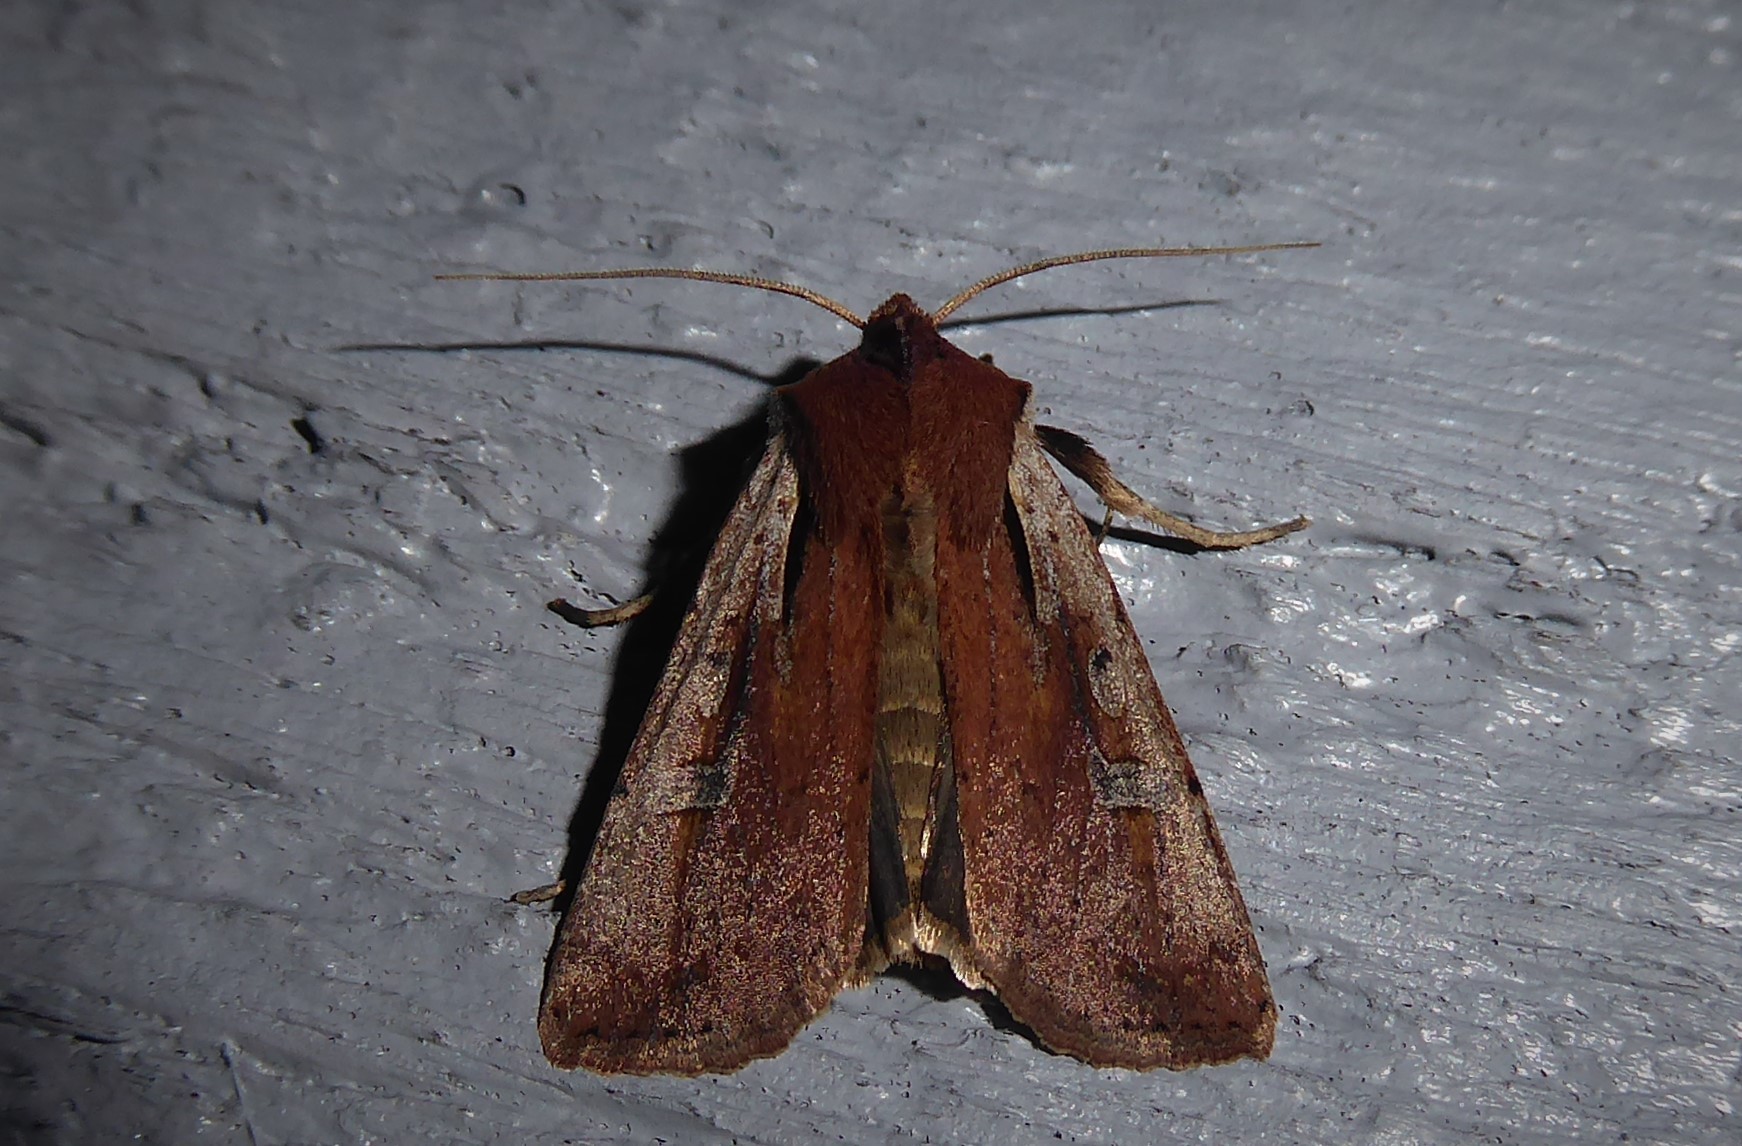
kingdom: Animalia
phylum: Arthropoda
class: Insecta
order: Lepidoptera
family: Noctuidae
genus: Ichneutica
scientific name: Ichneutica atristriga
